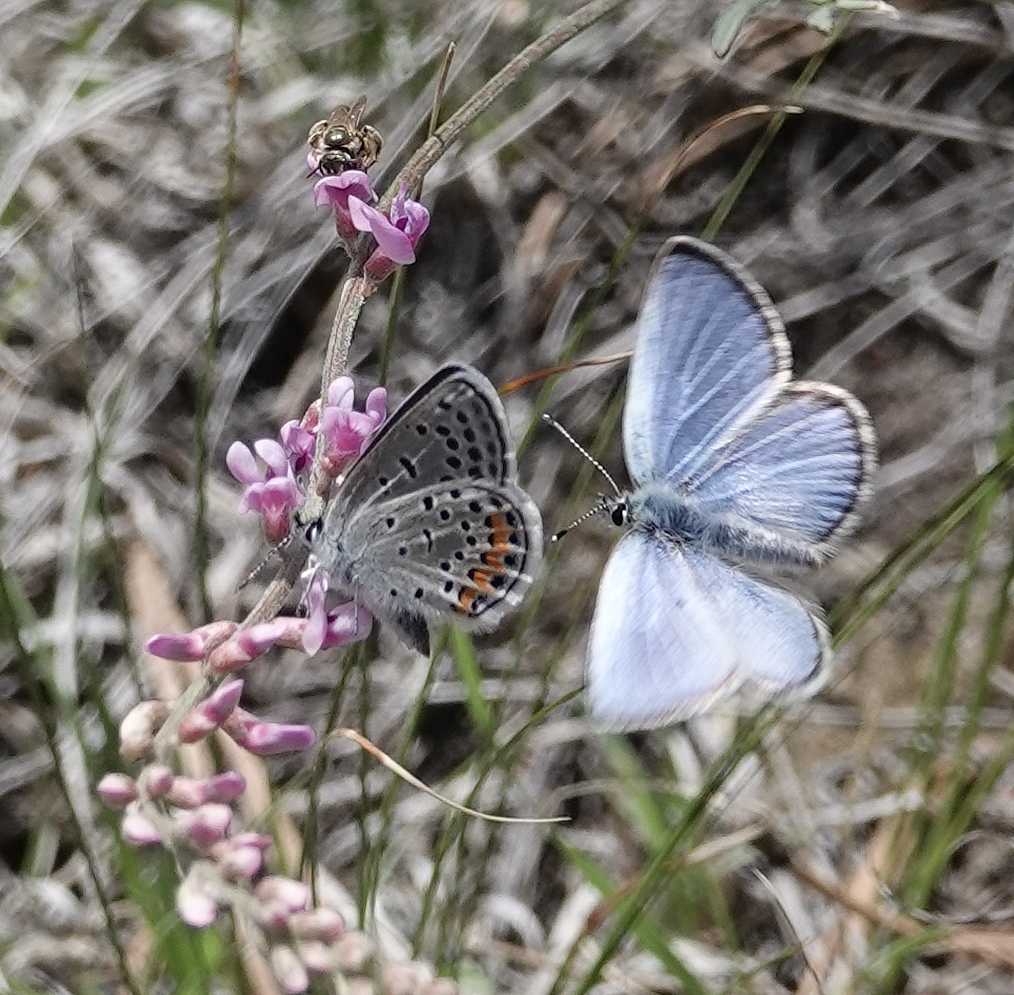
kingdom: Animalia
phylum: Arthropoda
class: Insecta
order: Lepidoptera
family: Lycaenidae
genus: Icaricia
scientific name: Icaricia lupini
